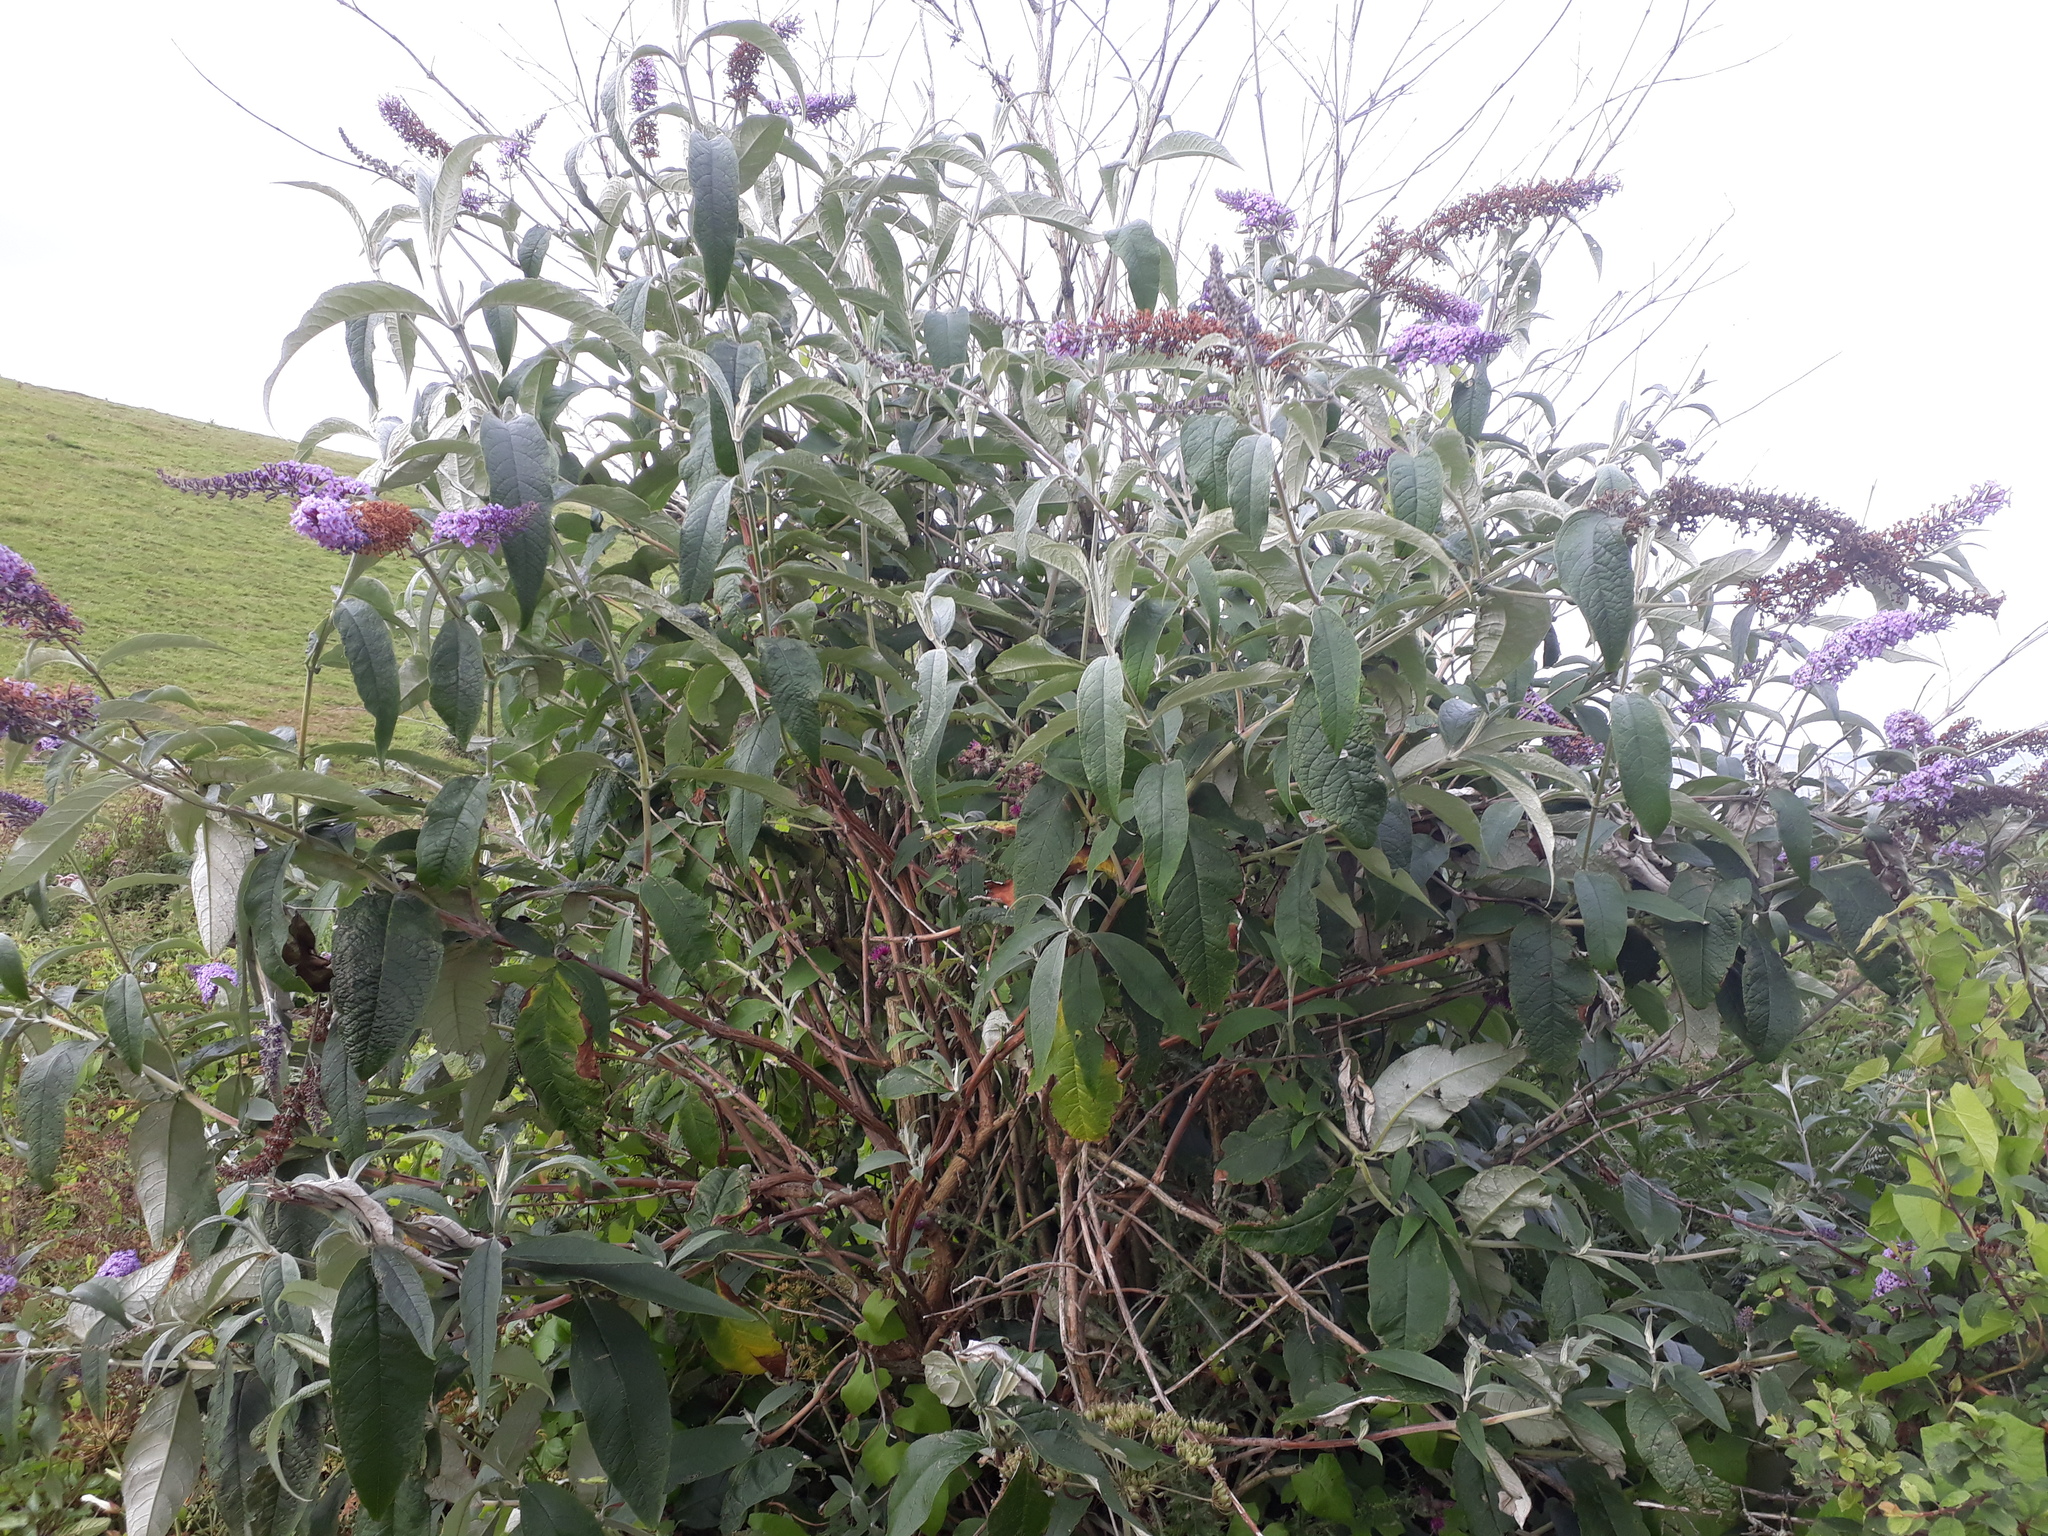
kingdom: Plantae
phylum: Tracheophyta
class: Magnoliopsida
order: Lamiales
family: Scrophulariaceae
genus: Buddleja
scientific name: Buddleja davidii
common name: Butterfly-bush
